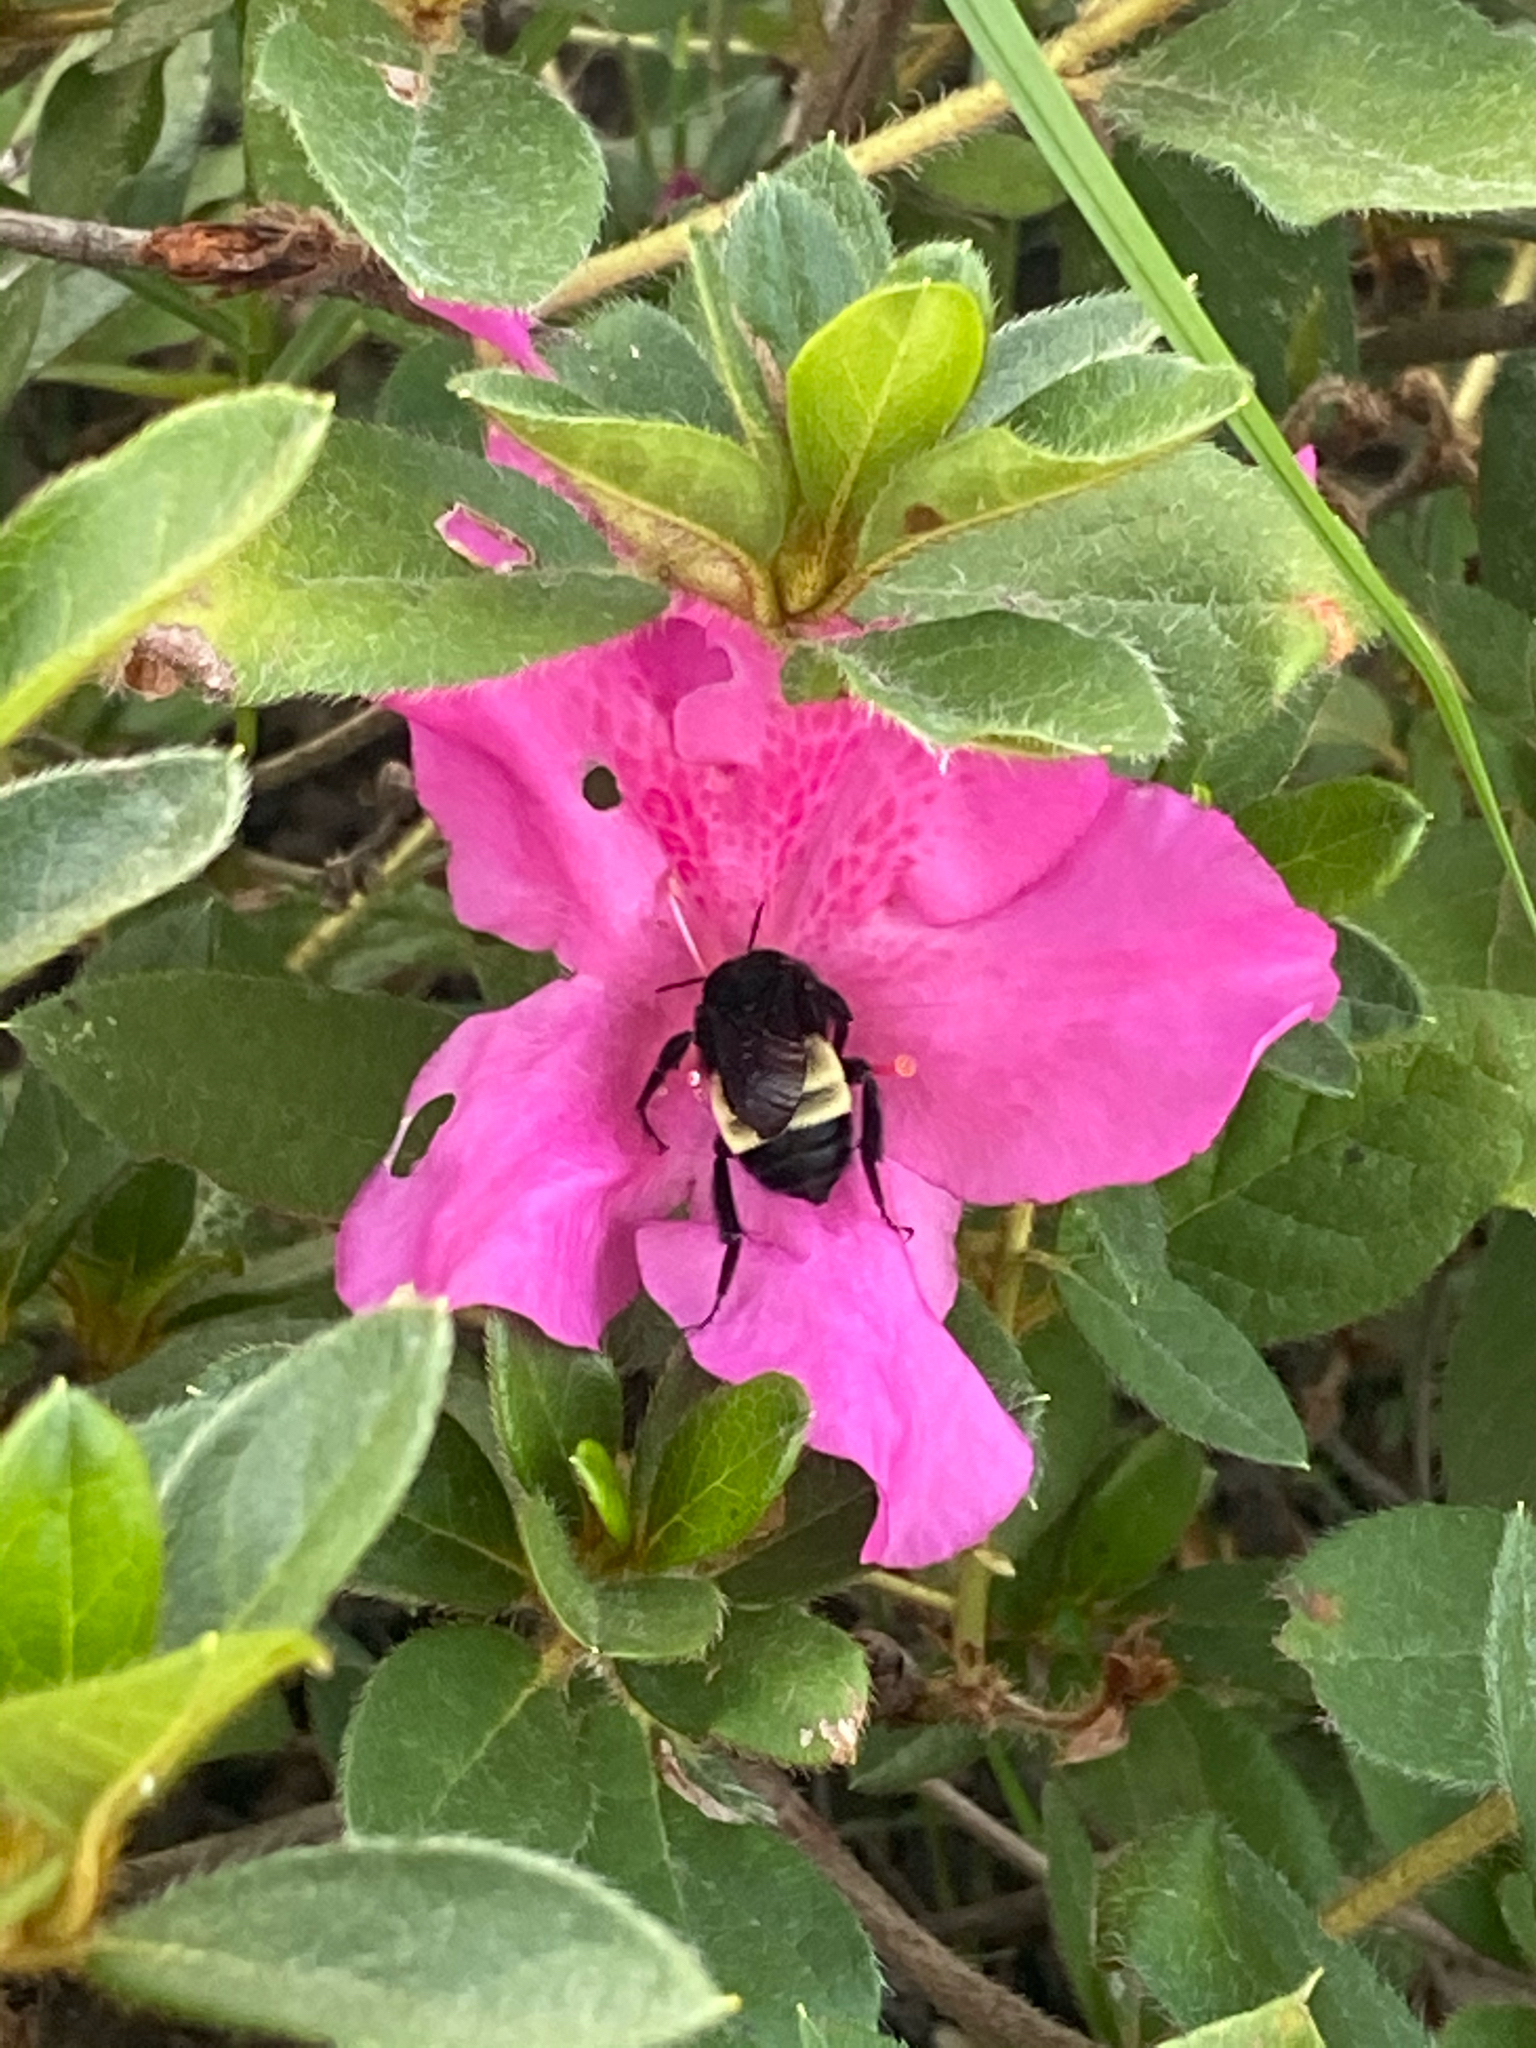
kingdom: Animalia
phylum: Arthropoda
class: Insecta
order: Hymenoptera
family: Apidae
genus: Bombus
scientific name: Bombus pensylvanicus
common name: Bumble bee
